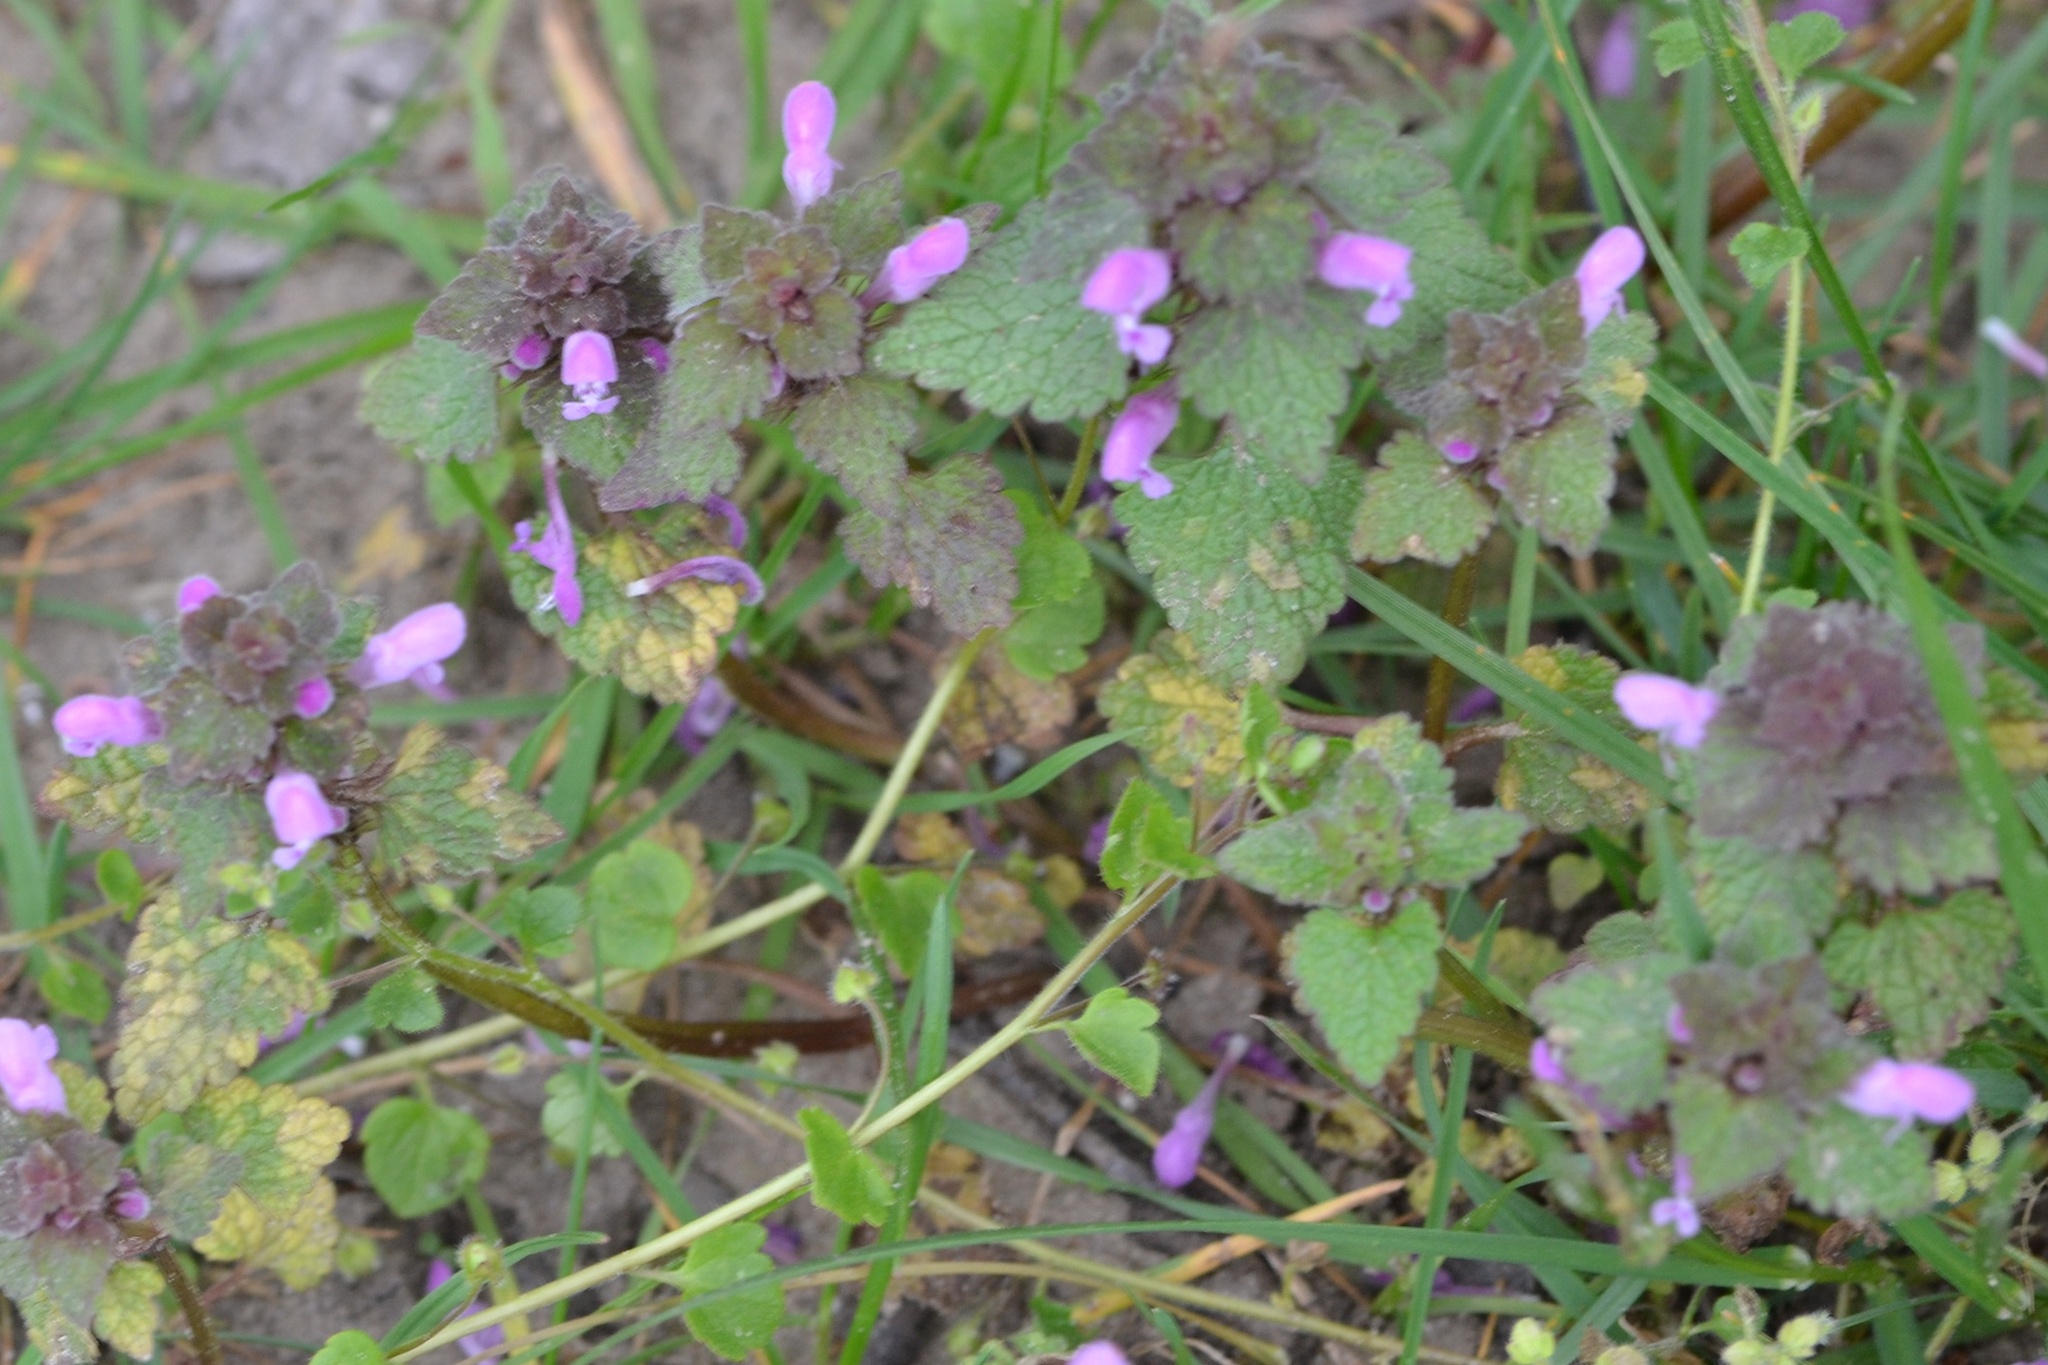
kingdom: Plantae
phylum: Tracheophyta
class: Magnoliopsida
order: Lamiales
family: Lamiaceae
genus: Lamium
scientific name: Lamium purpureum
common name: Red dead-nettle
